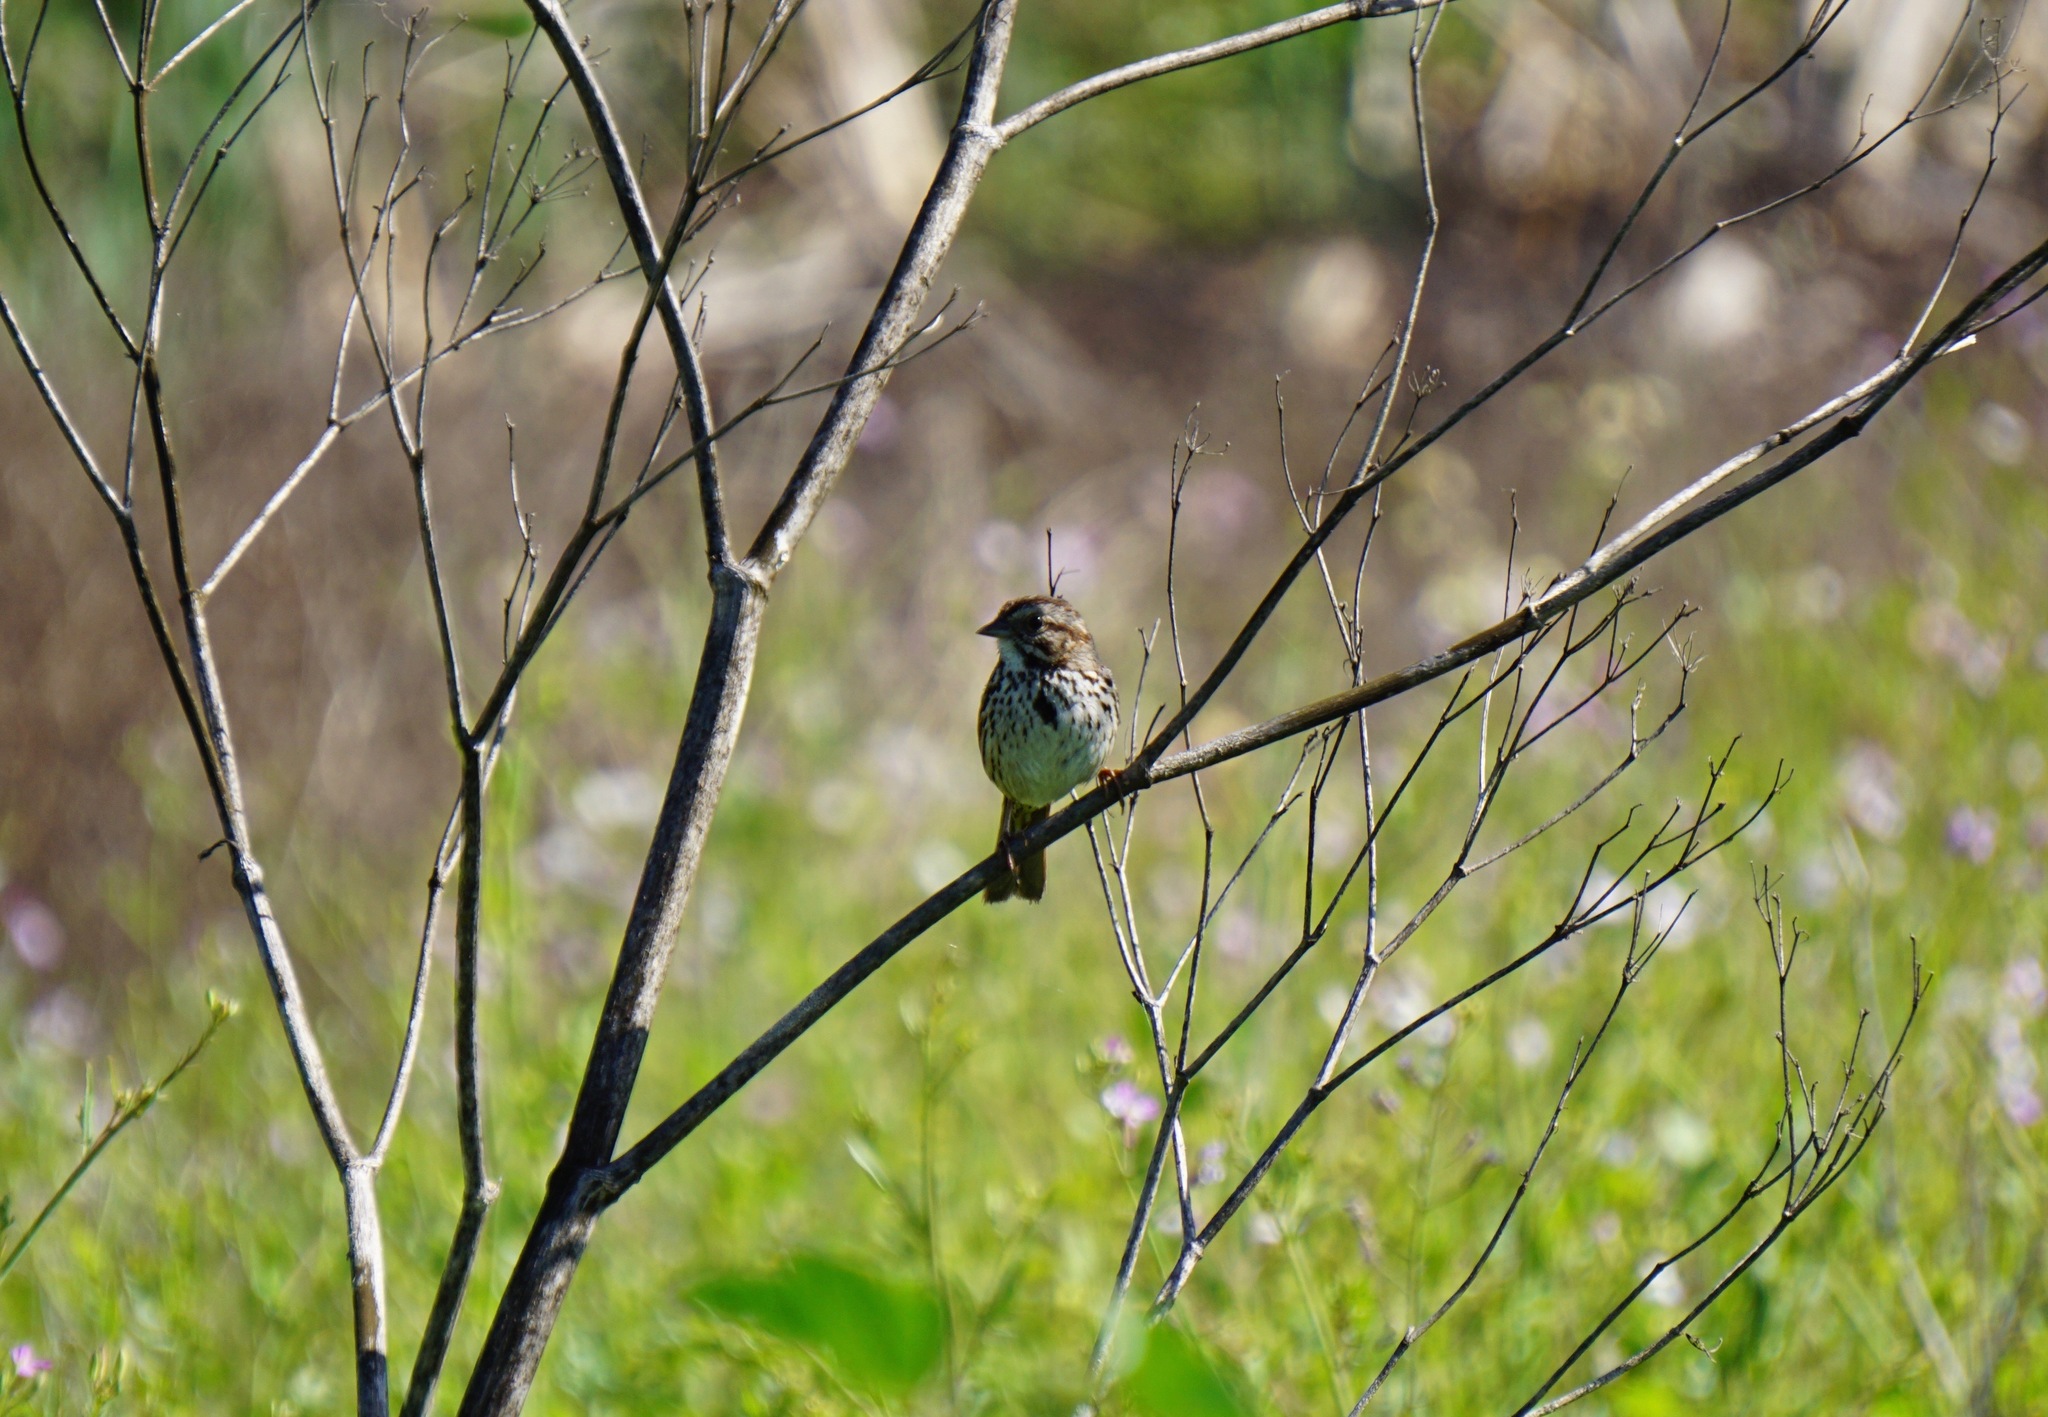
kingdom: Animalia
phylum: Chordata
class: Aves
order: Passeriformes
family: Passerellidae
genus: Melospiza
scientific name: Melospiza melodia
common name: Song sparrow
